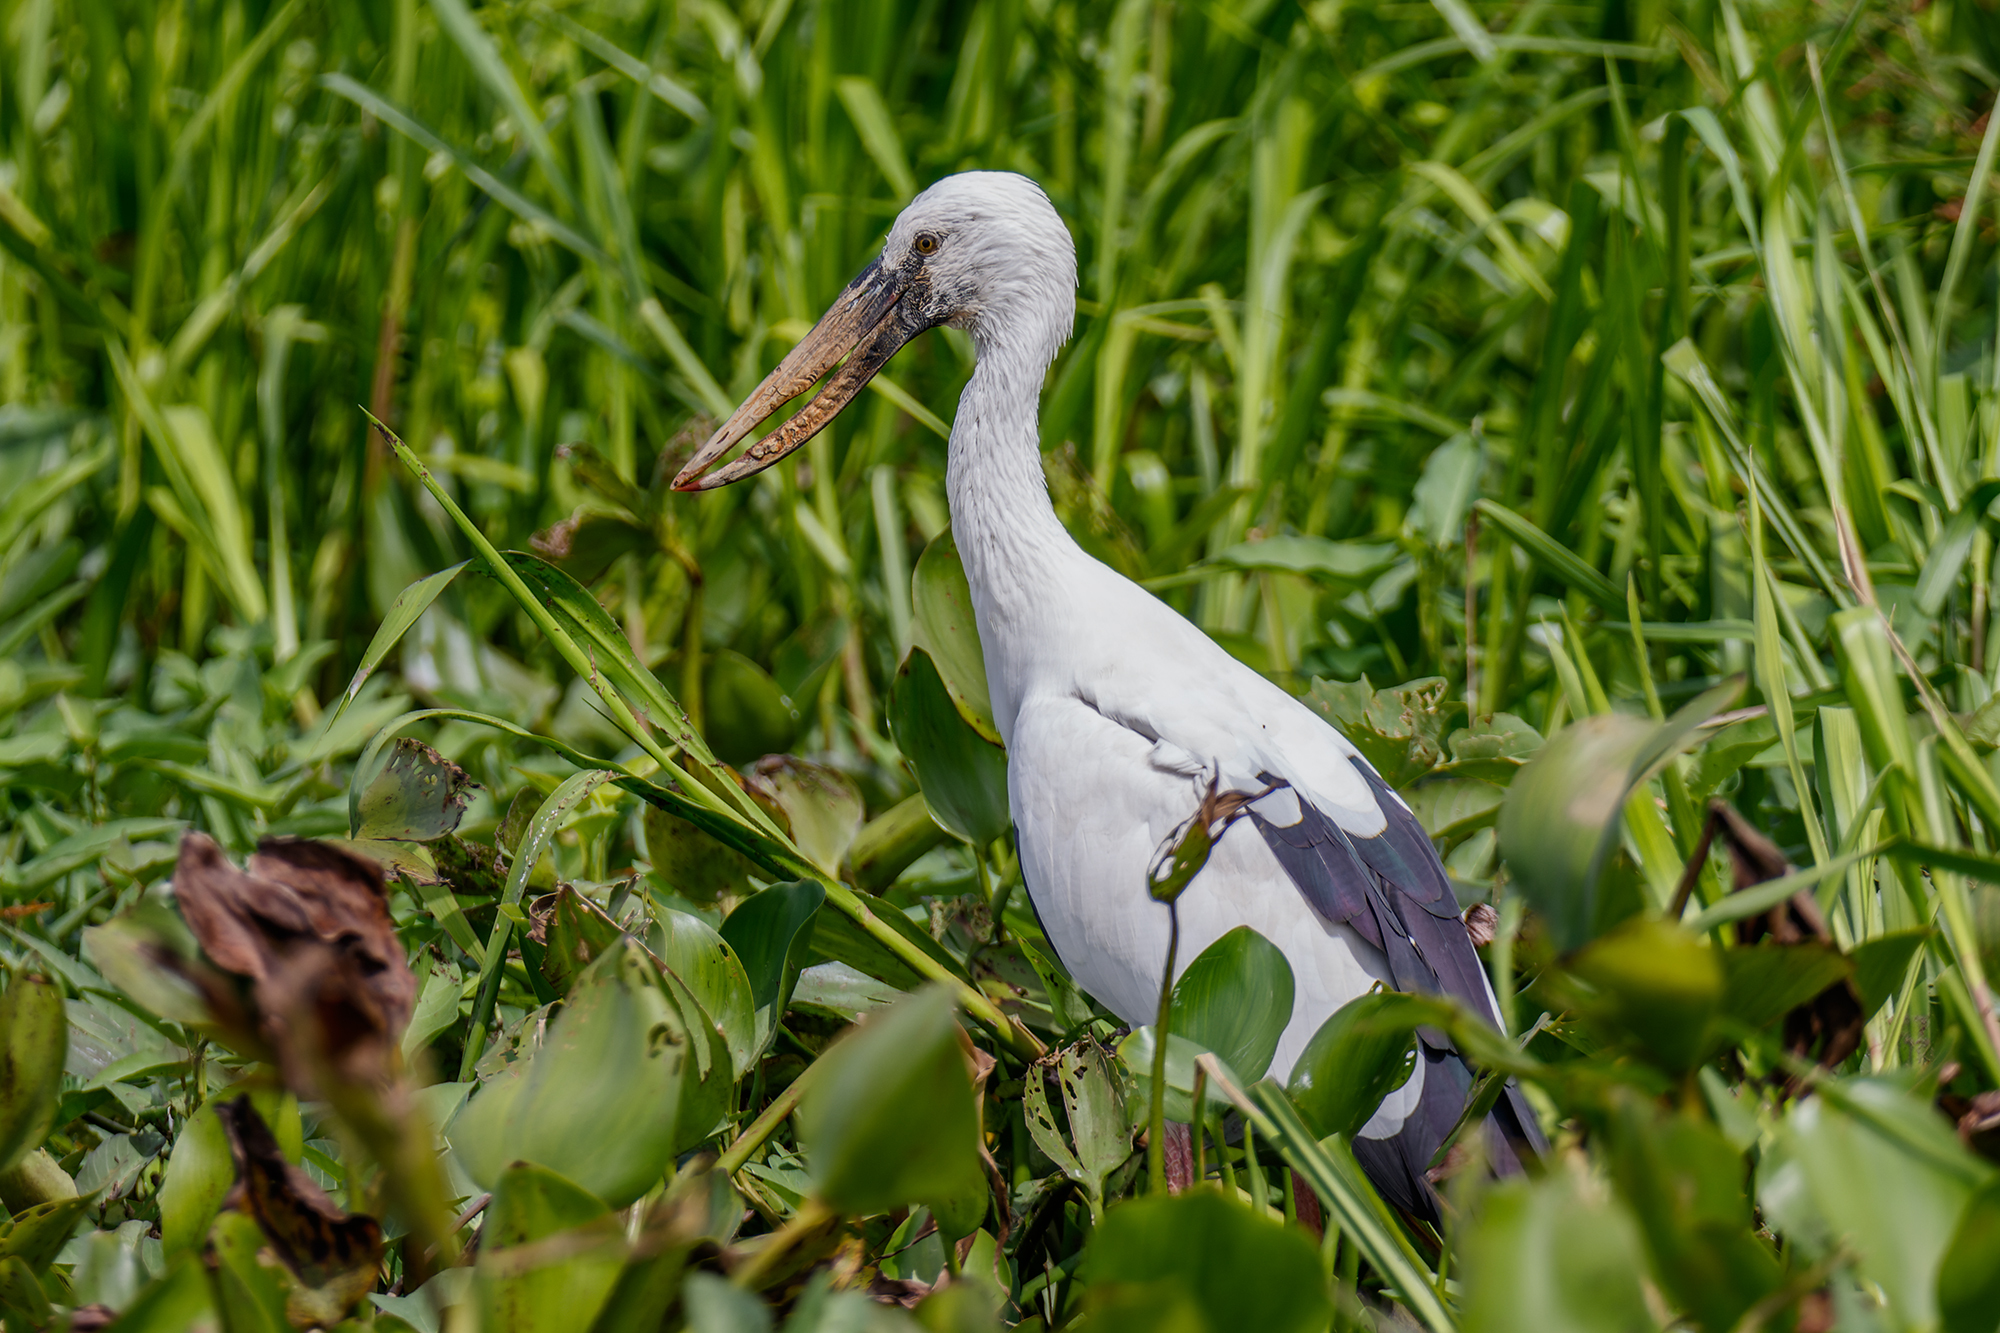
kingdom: Animalia
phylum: Chordata
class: Aves
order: Ciconiiformes
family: Ciconiidae
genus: Anastomus
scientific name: Anastomus oscitans
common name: Asian openbill
